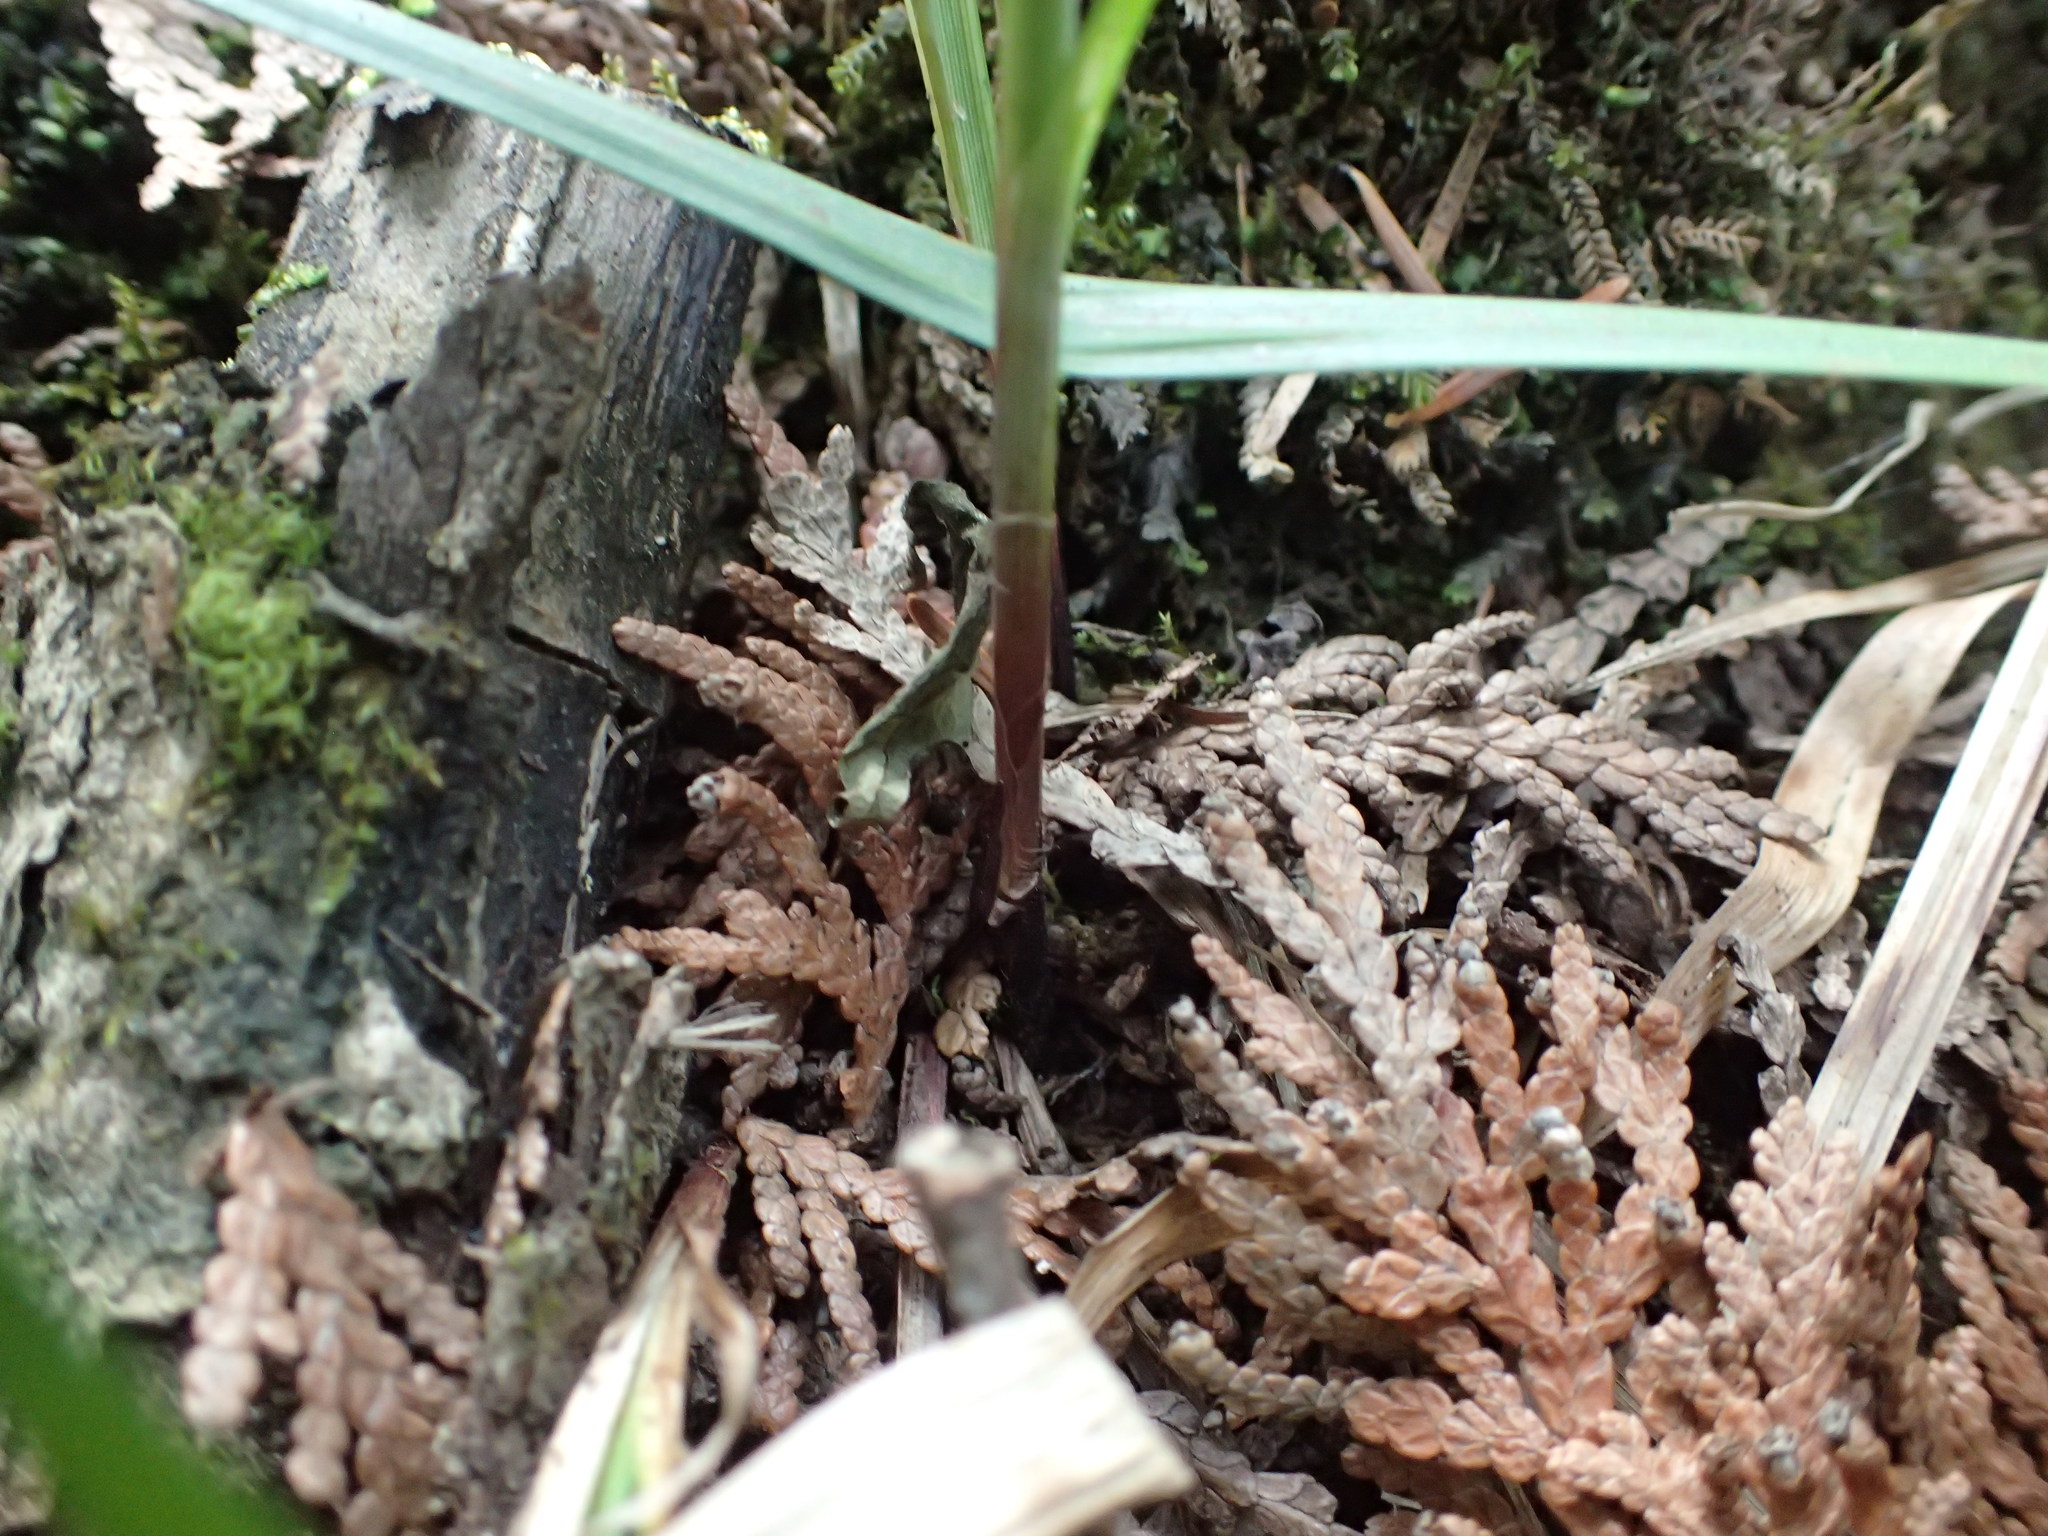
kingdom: Plantae
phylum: Tracheophyta
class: Liliopsida
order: Poales
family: Cyperaceae
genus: Carex
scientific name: Carex gracillima
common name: Graceful sedge
